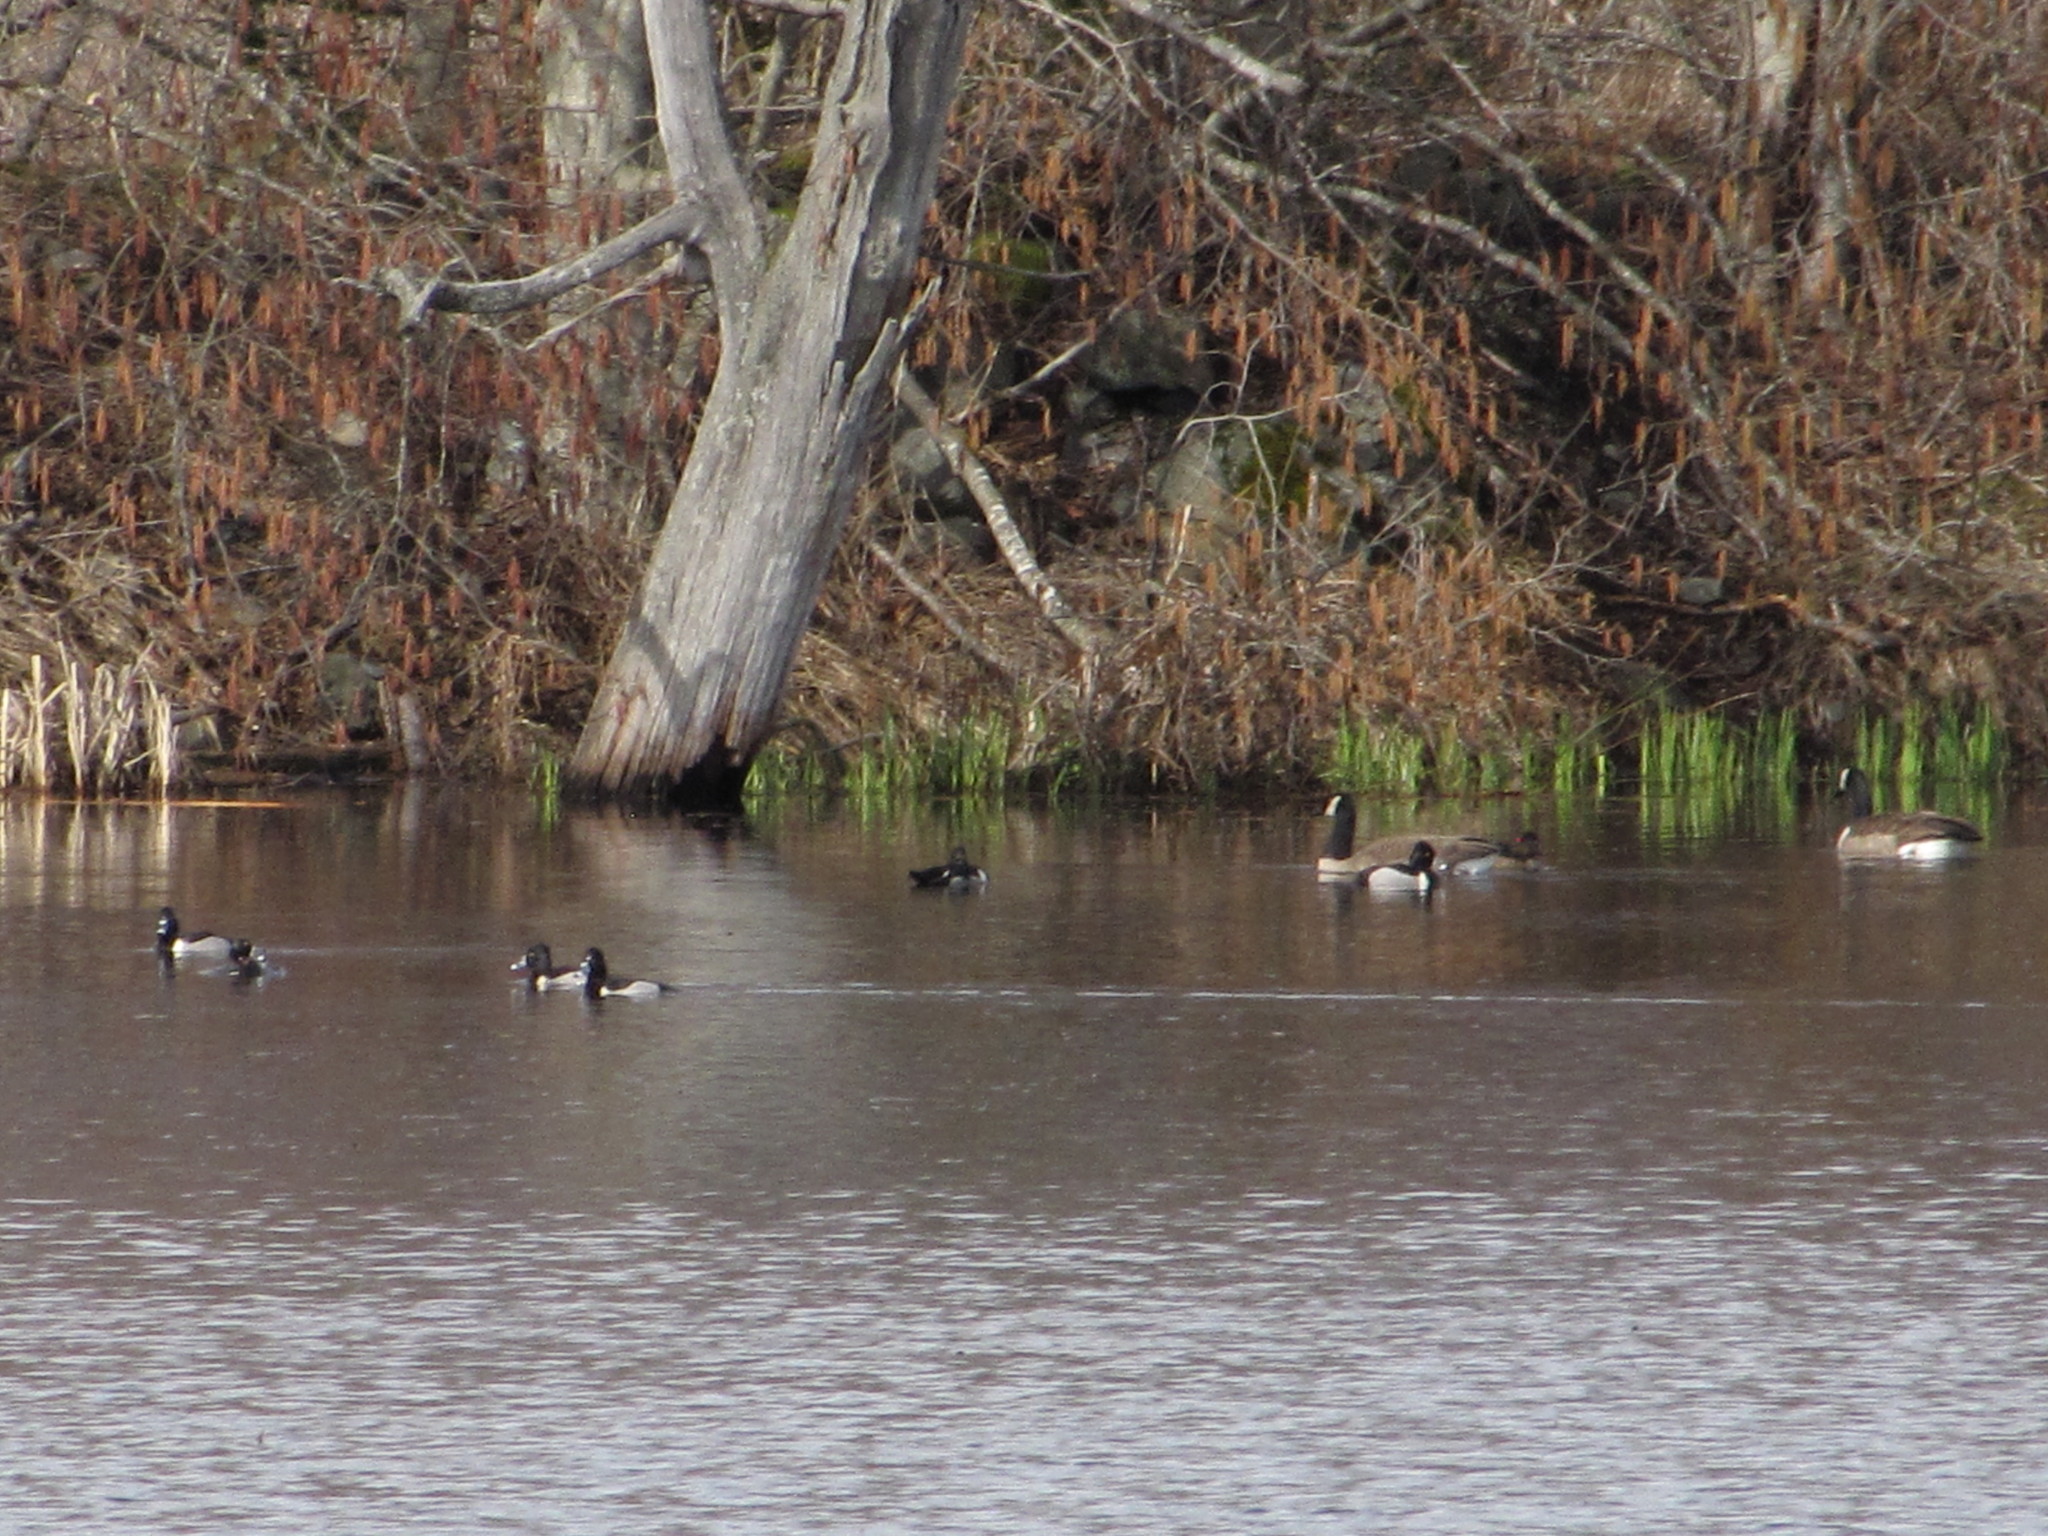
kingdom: Animalia
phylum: Chordata
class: Aves
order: Anseriformes
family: Anatidae
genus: Aythya
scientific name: Aythya collaris
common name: Ring-necked duck
